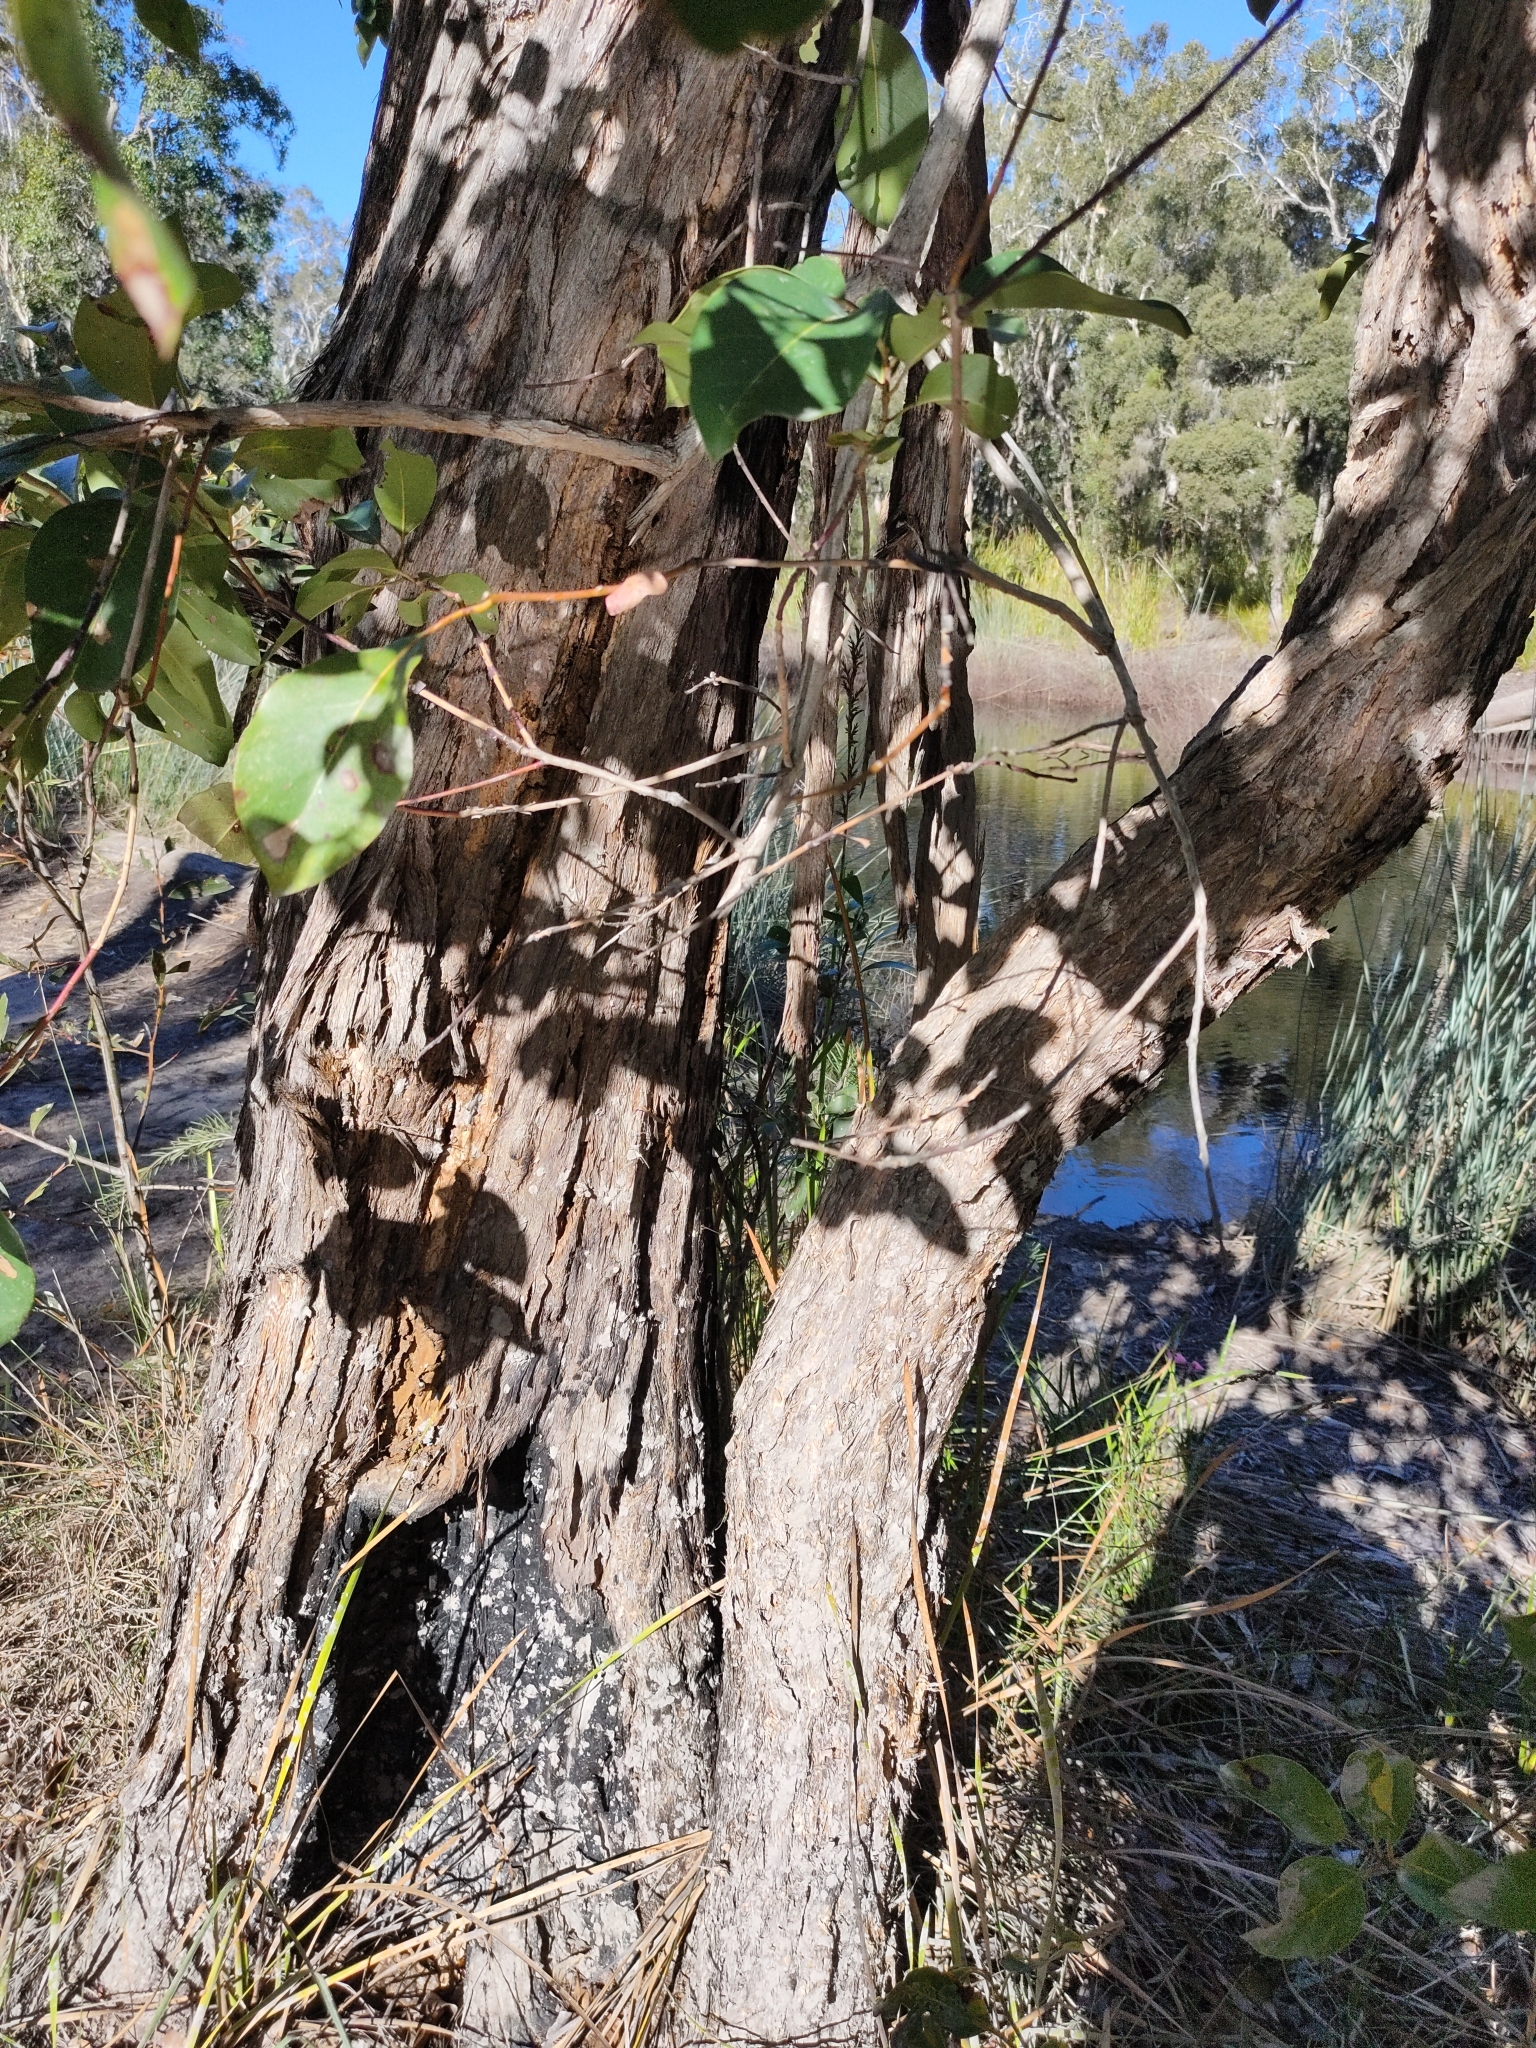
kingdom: Plantae
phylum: Tracheophyta
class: Magnoliopsida
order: Myrtales
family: Myrtaceae
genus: Lophostemon
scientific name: Lophostemon suaveolens
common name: Paperbark-mahogany
